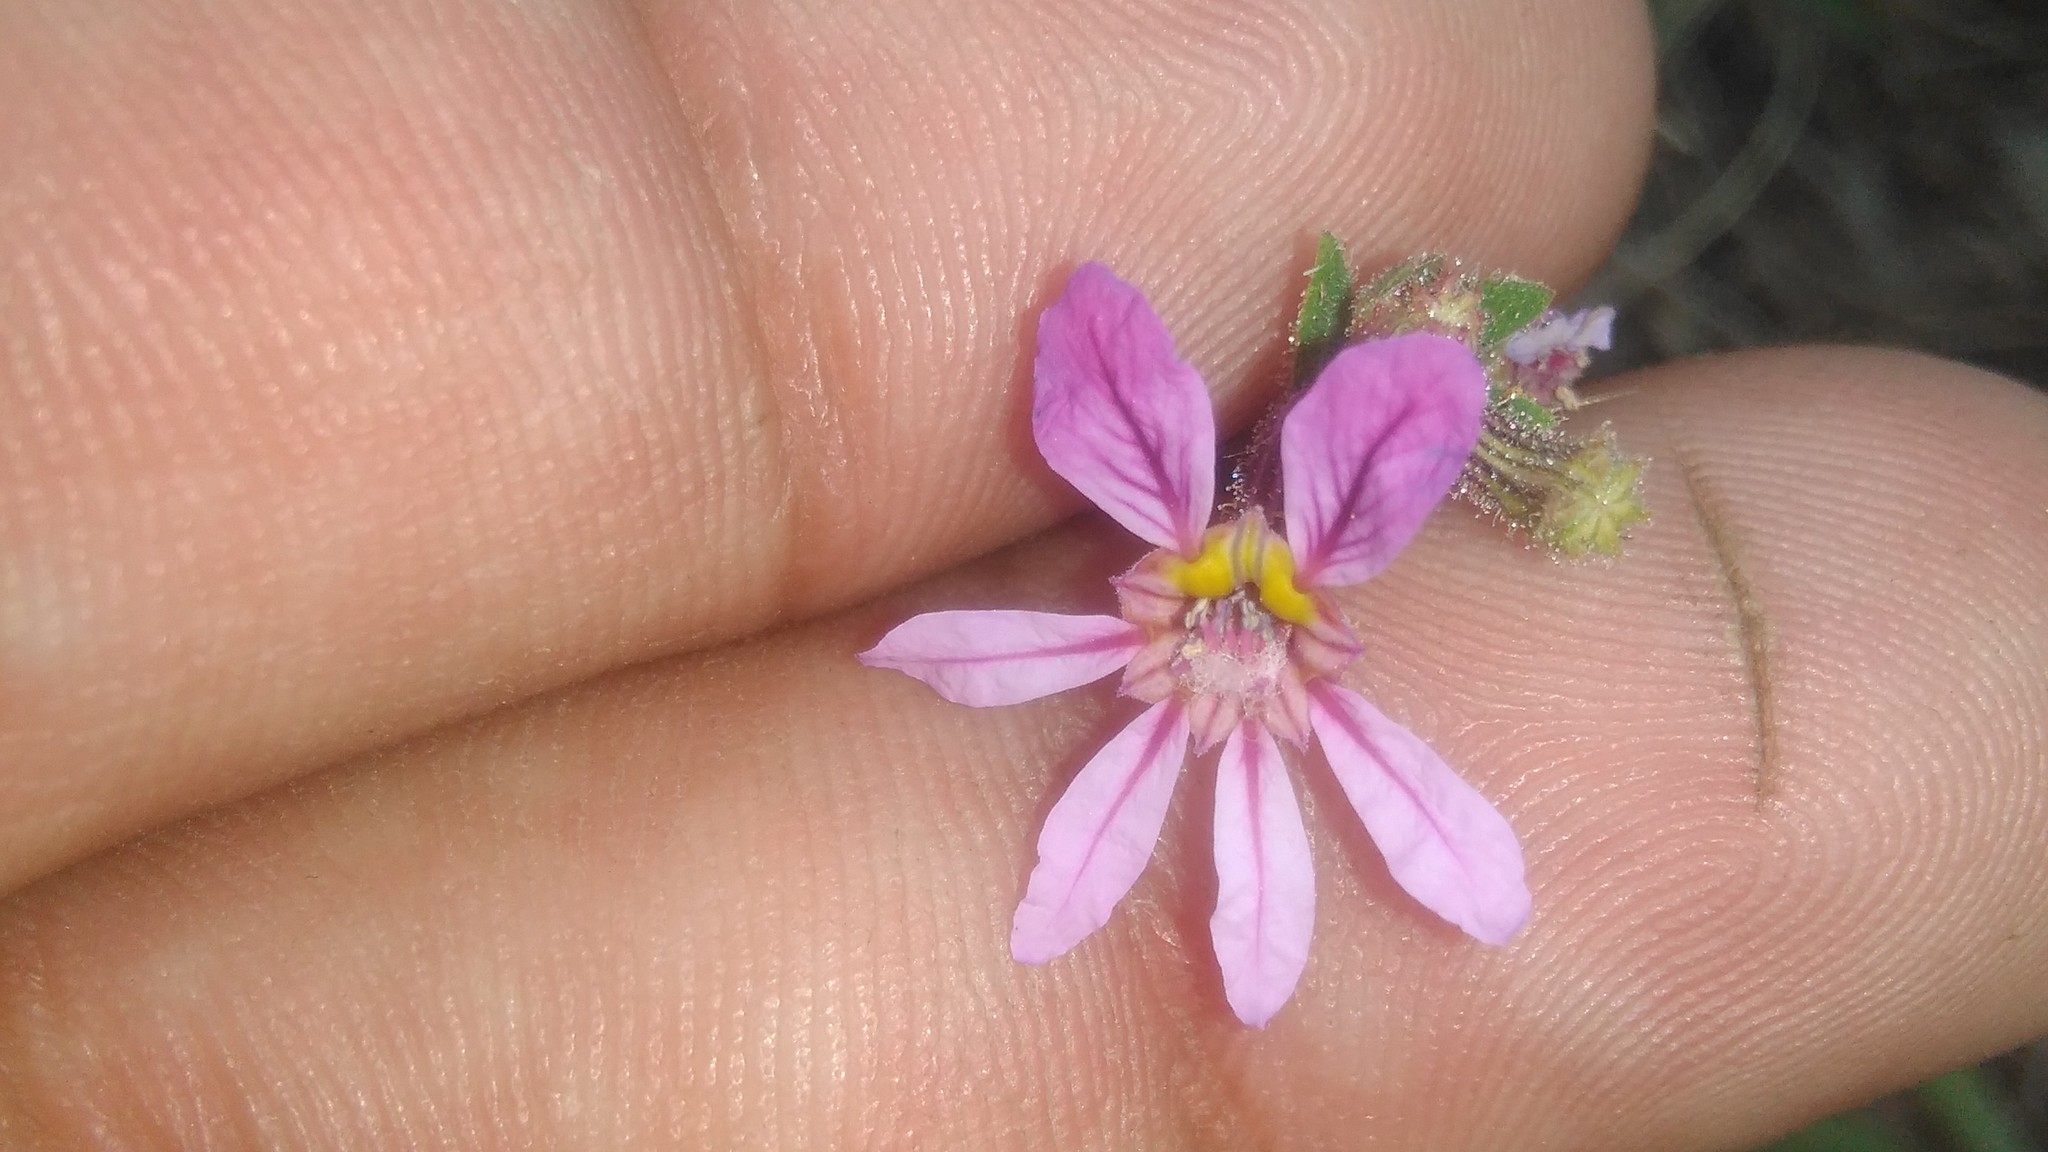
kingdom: Plantae
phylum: Tracheophyta
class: Magnoliopsida
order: Myrtales
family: Lythraceae
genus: Cuphea
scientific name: Cuphea glutinosa
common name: Sticky waxweed
